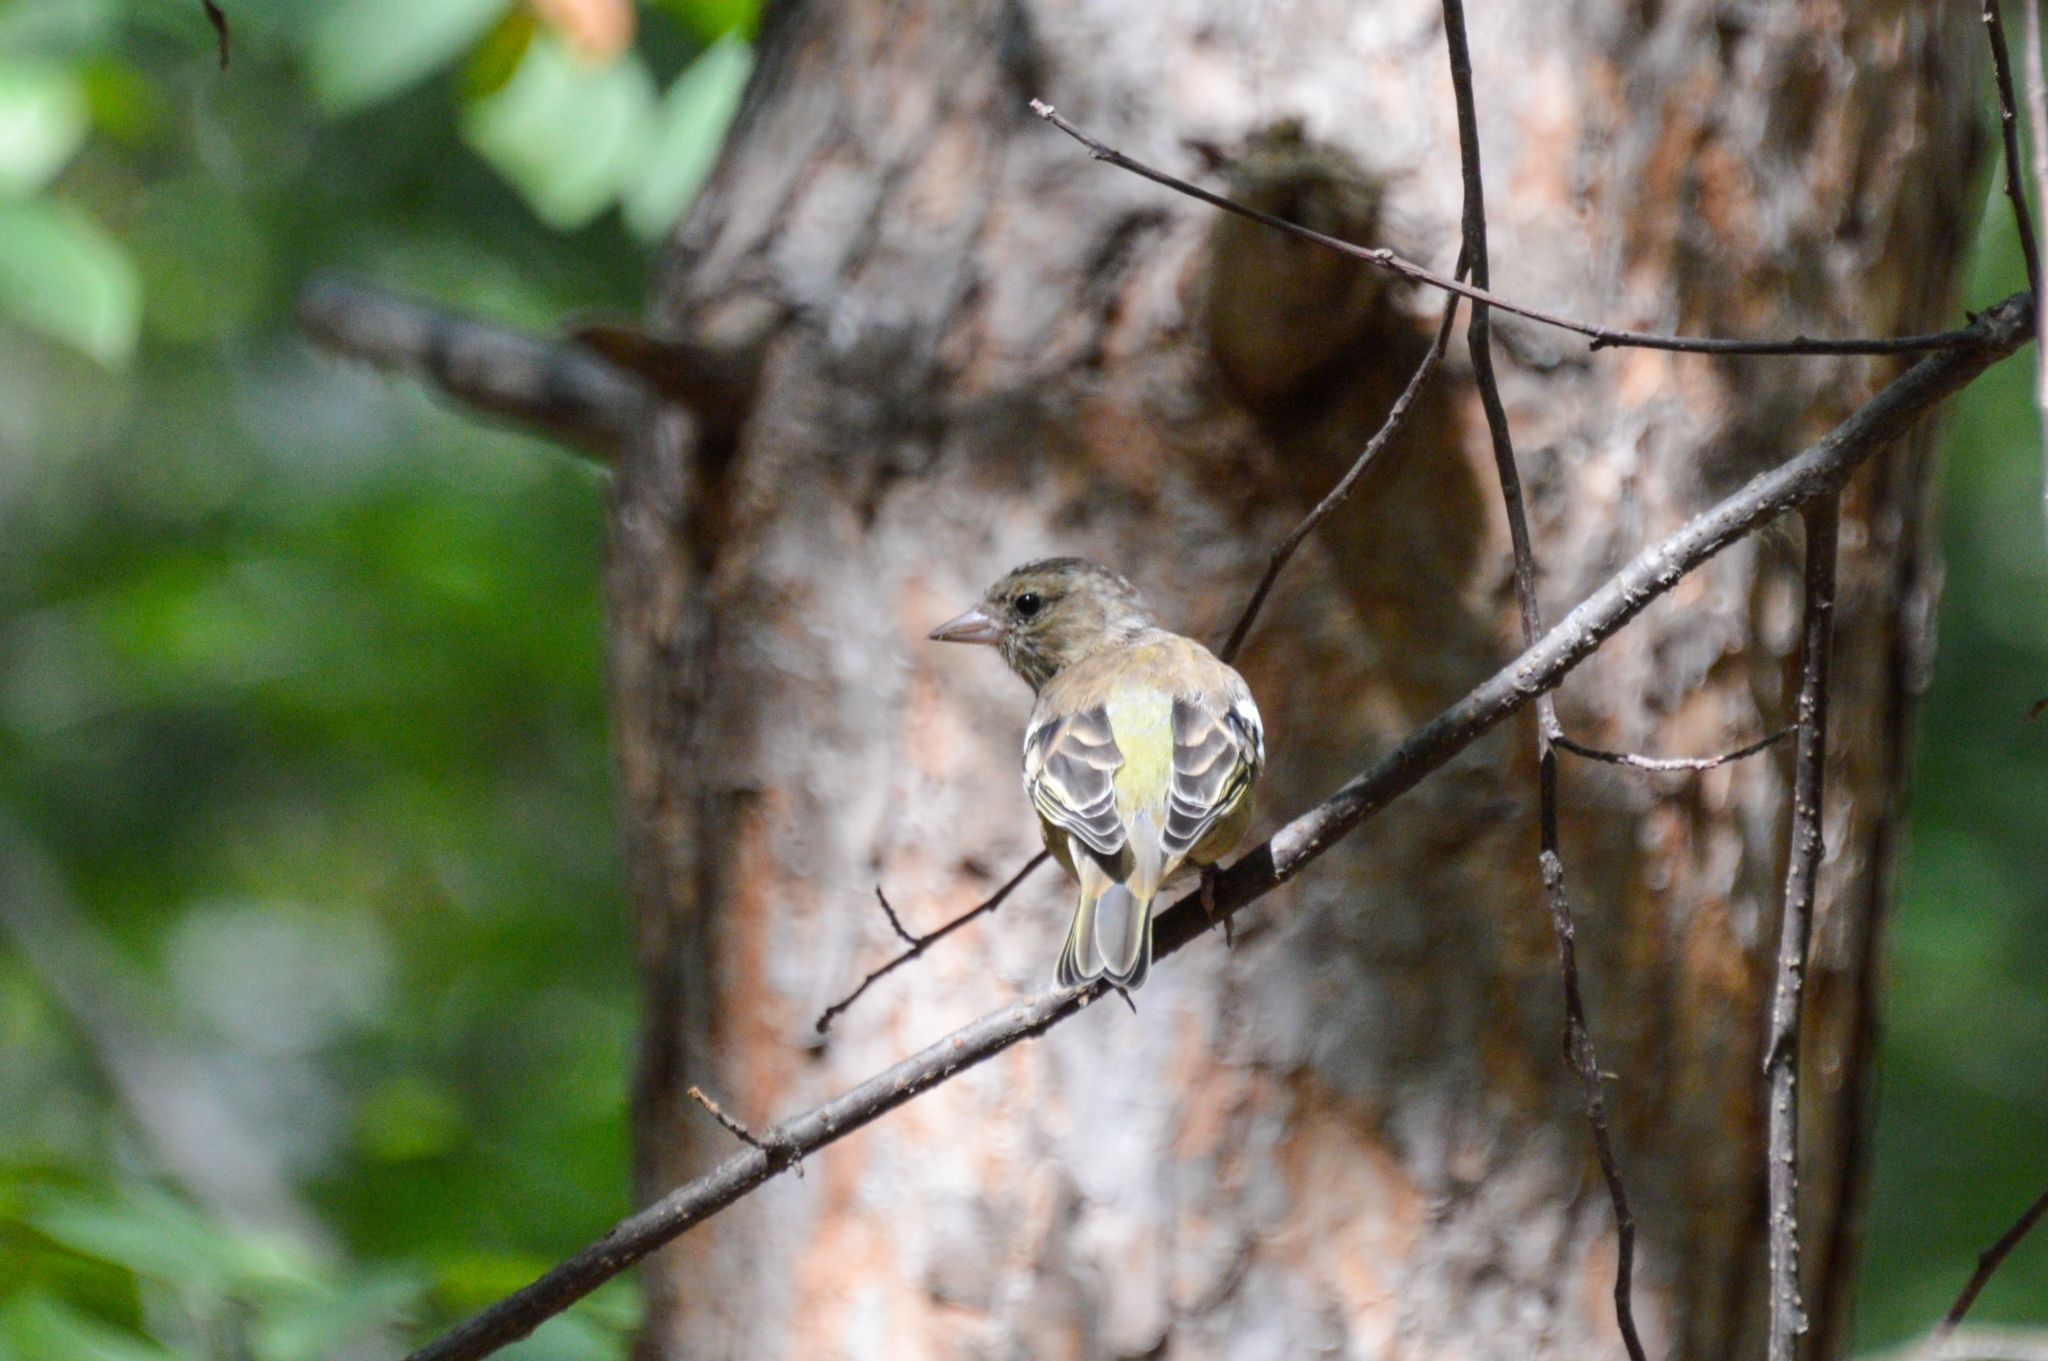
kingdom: Animalia
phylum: Chordata
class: Aves
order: Passeriformes
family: Fringillidae
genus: Fringilla
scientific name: Fringilla coelebs
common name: Common chaffinch
